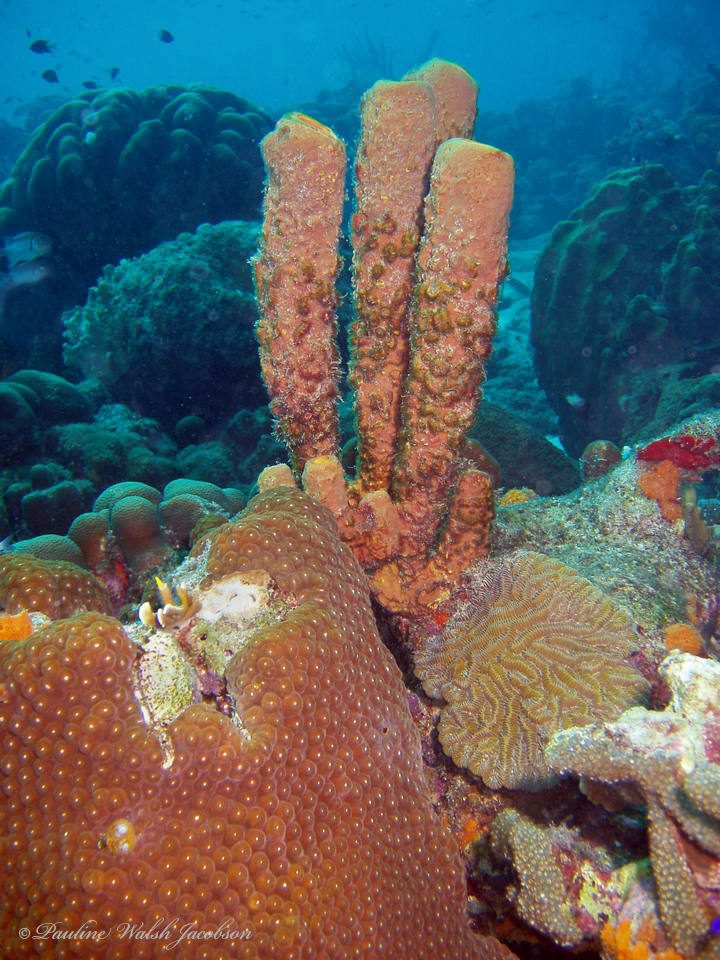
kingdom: Animalia
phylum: Cnidaria
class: Anthozoa
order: Scleractinia
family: Montastraeidae
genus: Montastraea
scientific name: Montastraea cavernosa
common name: Great star coral
